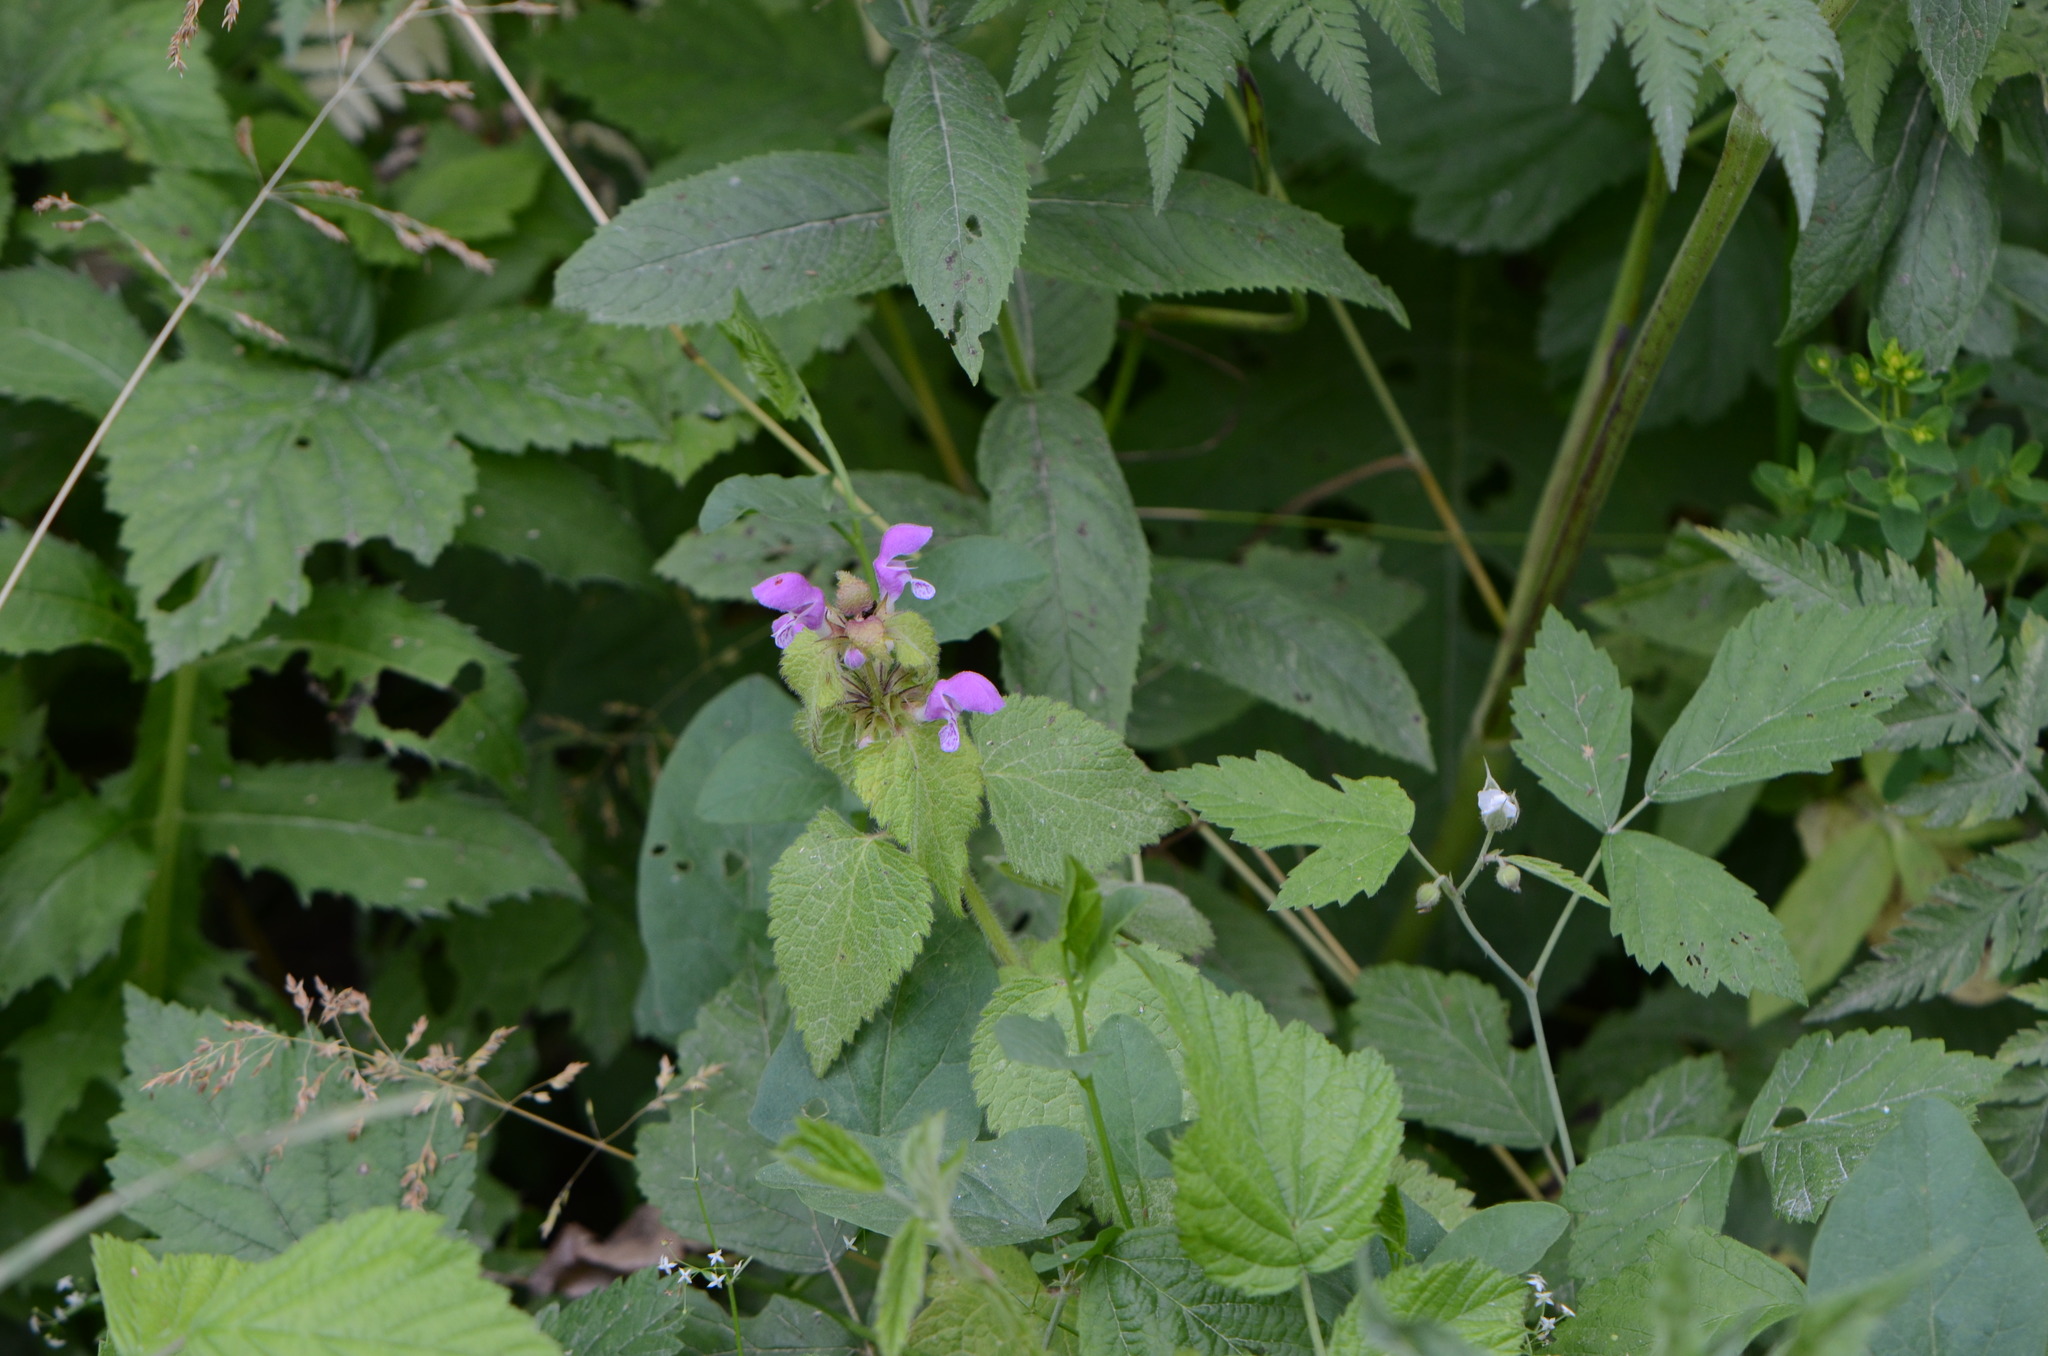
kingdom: Plantae
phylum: Tracheophyta
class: Magnoliopsida
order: Lamiales
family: Lamiaceae
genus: Lamium
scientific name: Lamium maculatum
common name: Spotted dead-nettle
